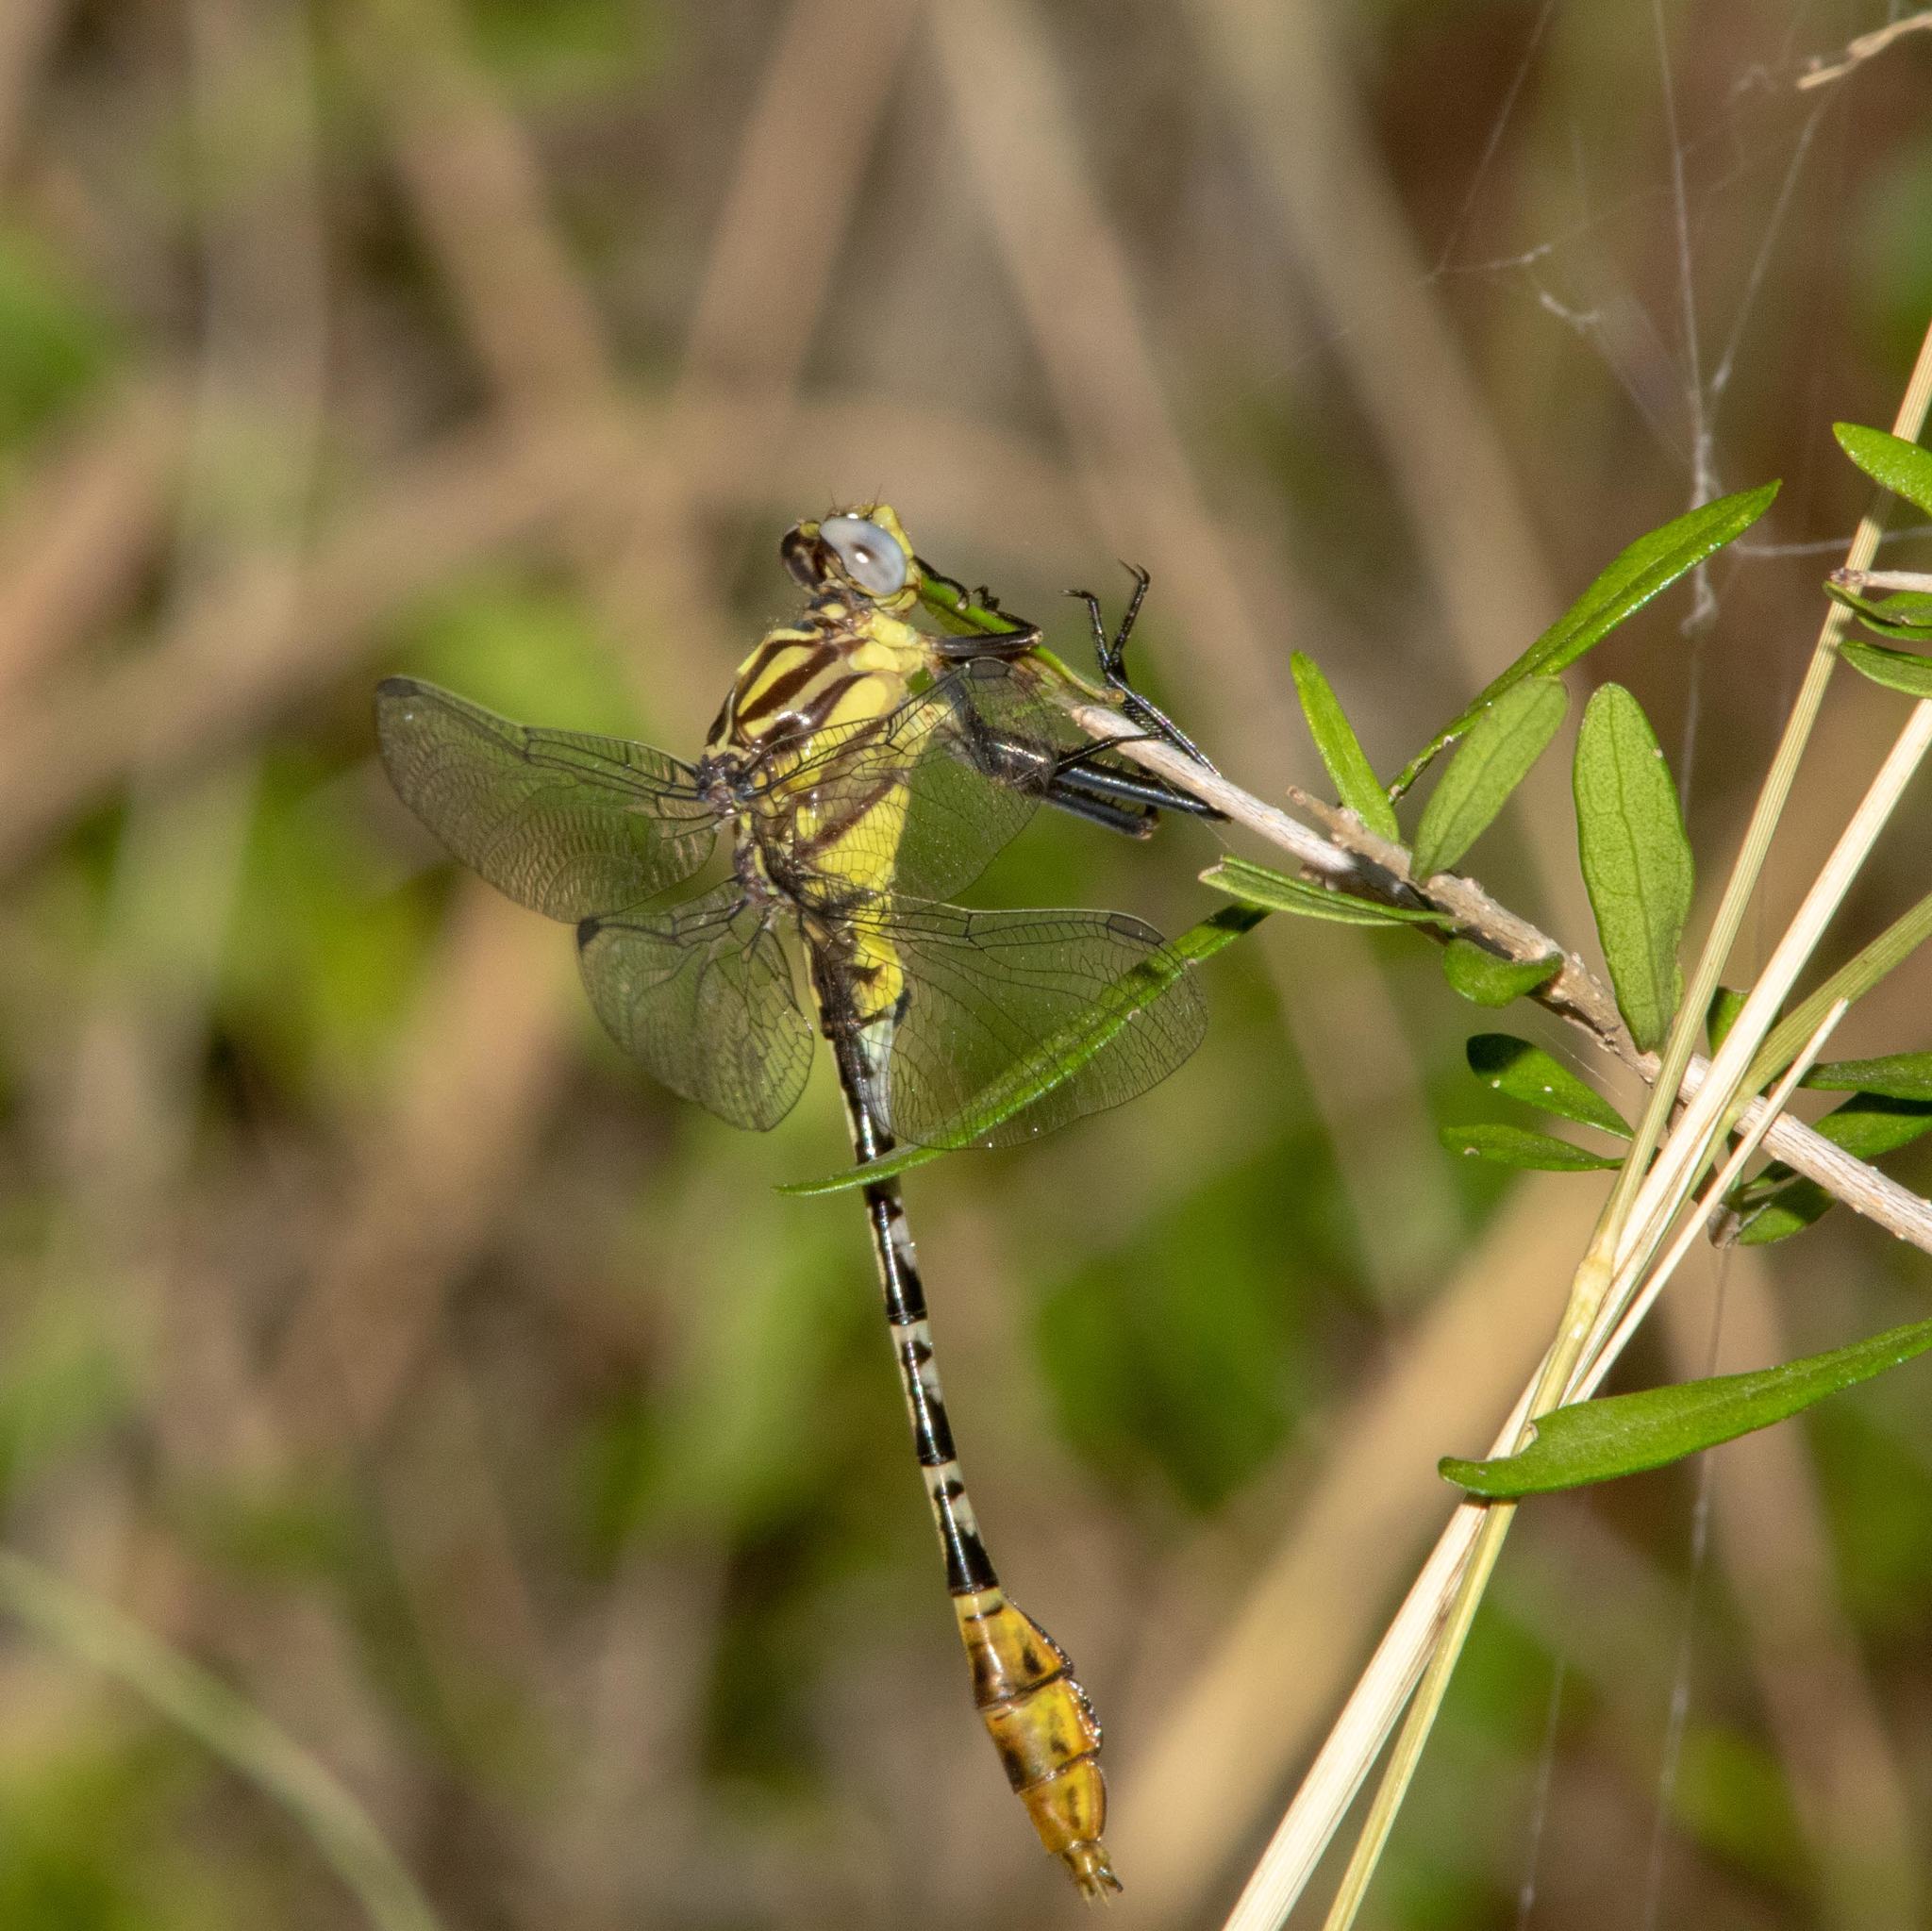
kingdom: Animalia
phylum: Arthropoda
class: Insecta
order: Odonata
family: Gomphidae
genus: Dromogomphus
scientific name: Dromogomphus spoliatus
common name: Flag-tailed spinyleg
